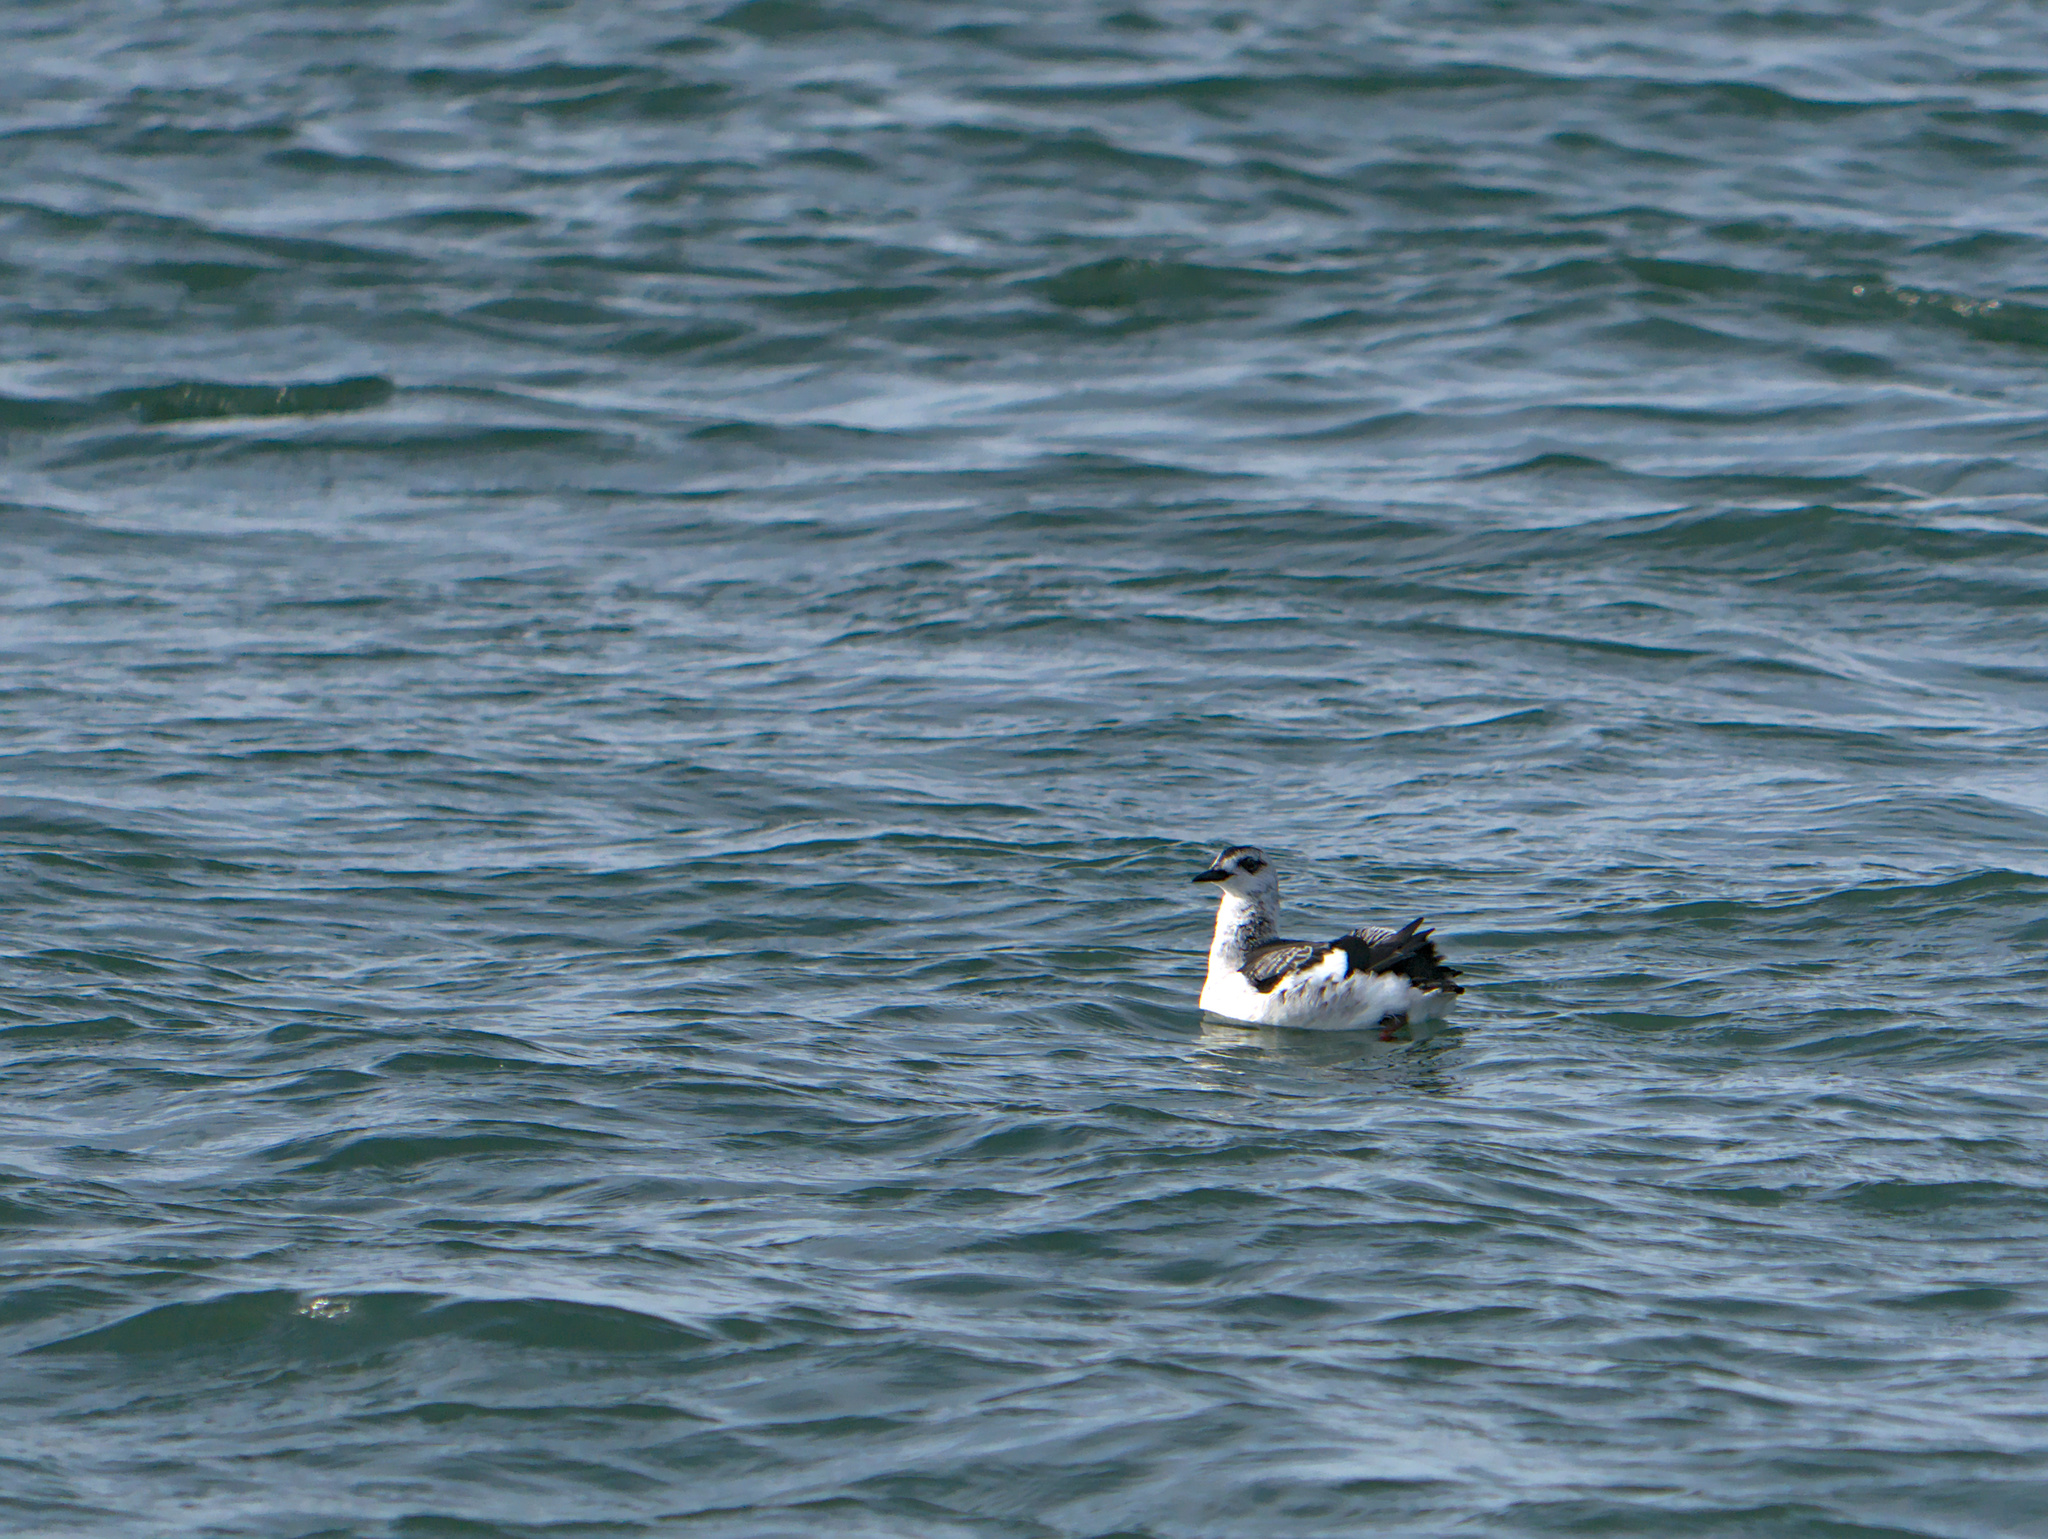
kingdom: Animalia
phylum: Chordata
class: Aves
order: Charadriiformes
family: Alcidae
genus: Cepphus
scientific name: Cepphus grylle
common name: Black guillemot
